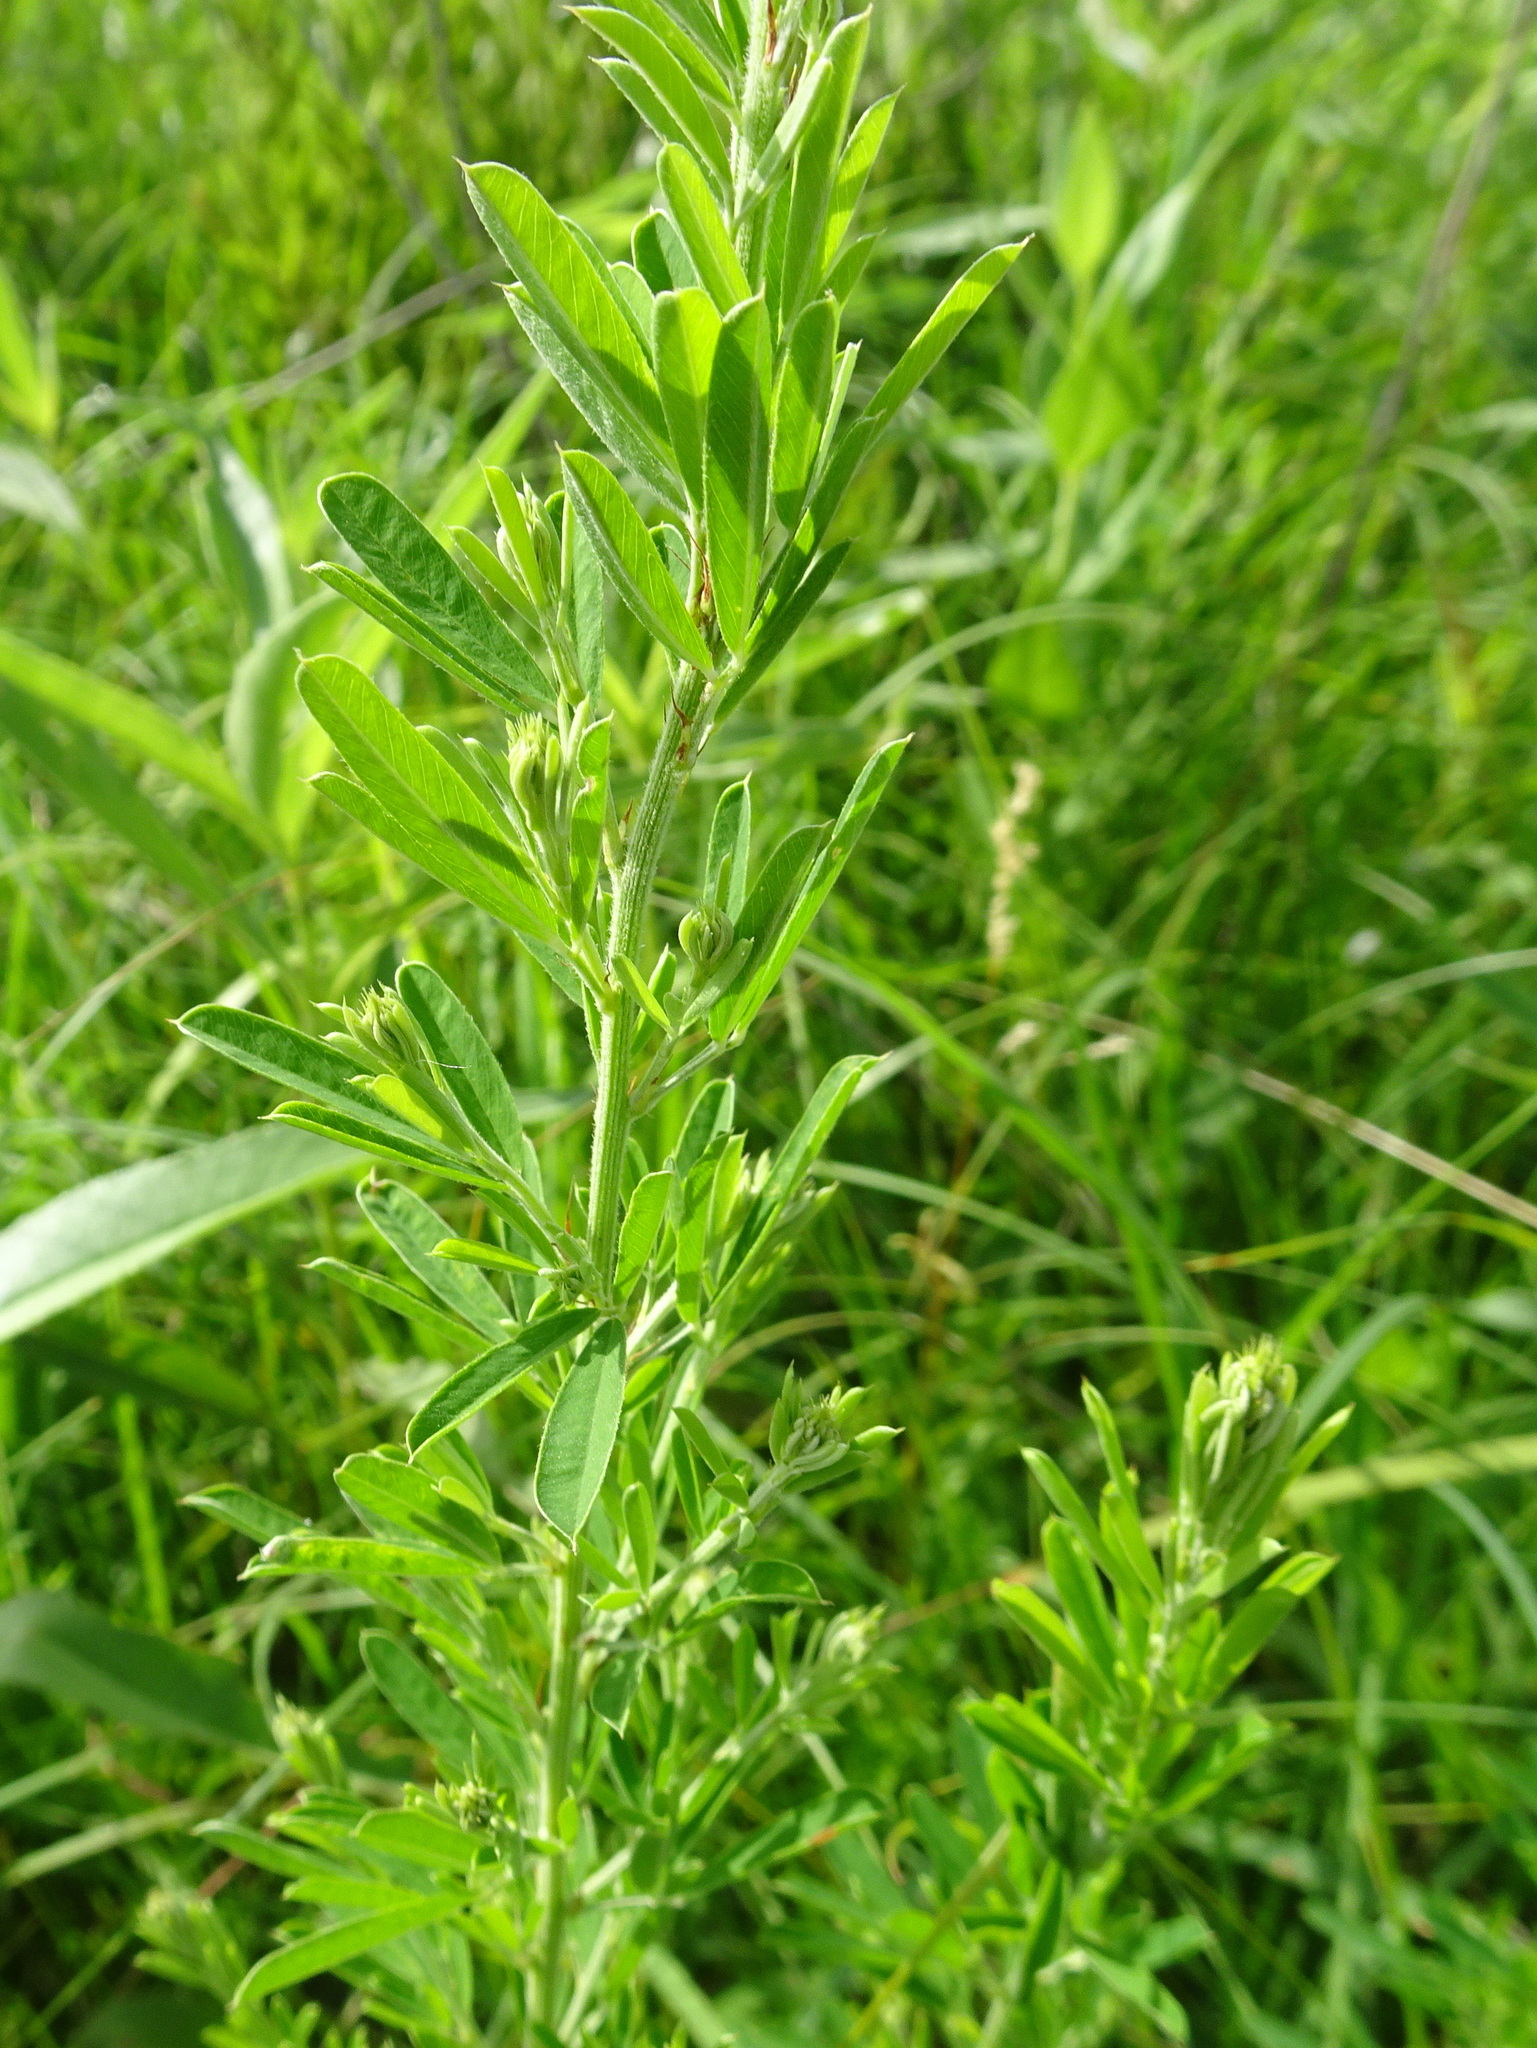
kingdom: Plantae
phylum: Tracheophyta
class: Magnoliopsida
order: Fabales
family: Fabaceae
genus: Lespedeza
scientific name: Lespedeza cuneata
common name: Chinese bush-clover
